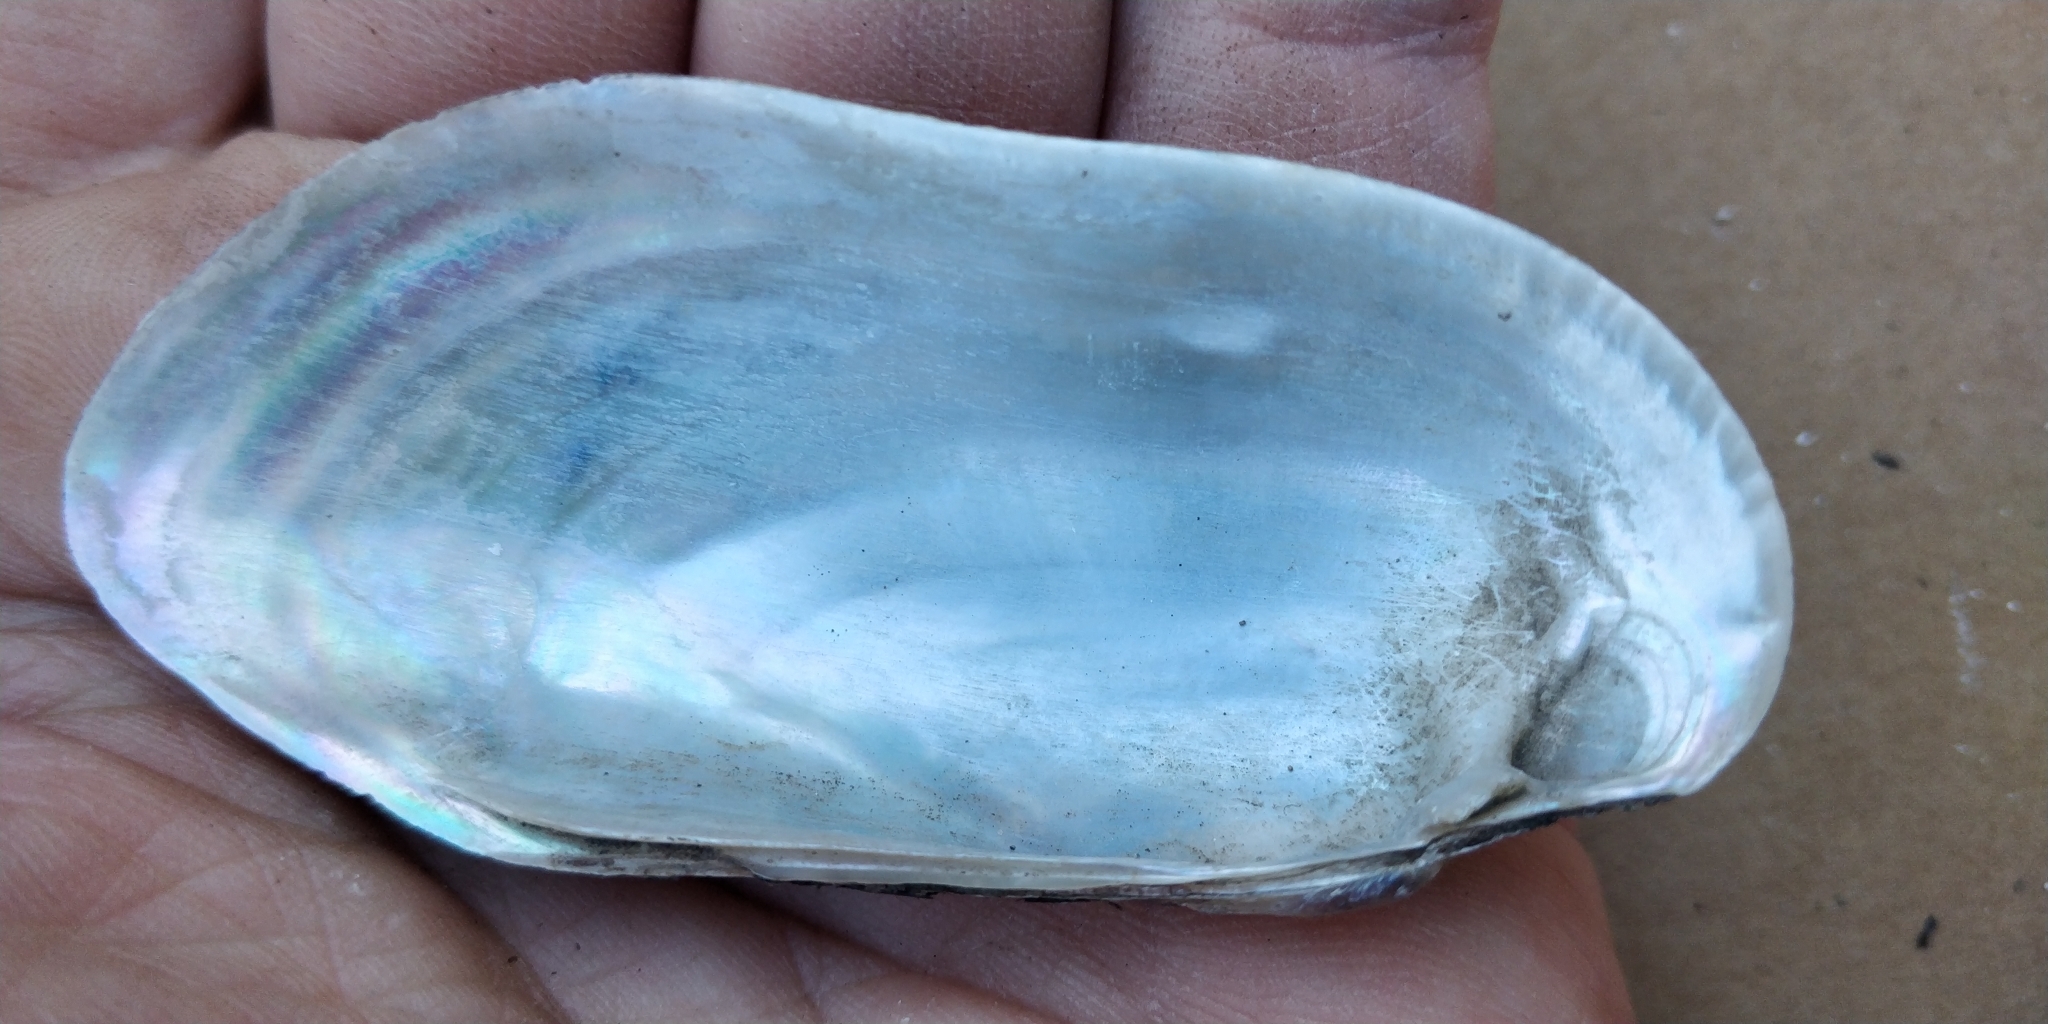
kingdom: Animalia
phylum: Mollusca
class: Bivalvia
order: Unionida
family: Unionidae
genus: Lampsilis
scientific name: Lampsilis teres
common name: Yellow sandshell
